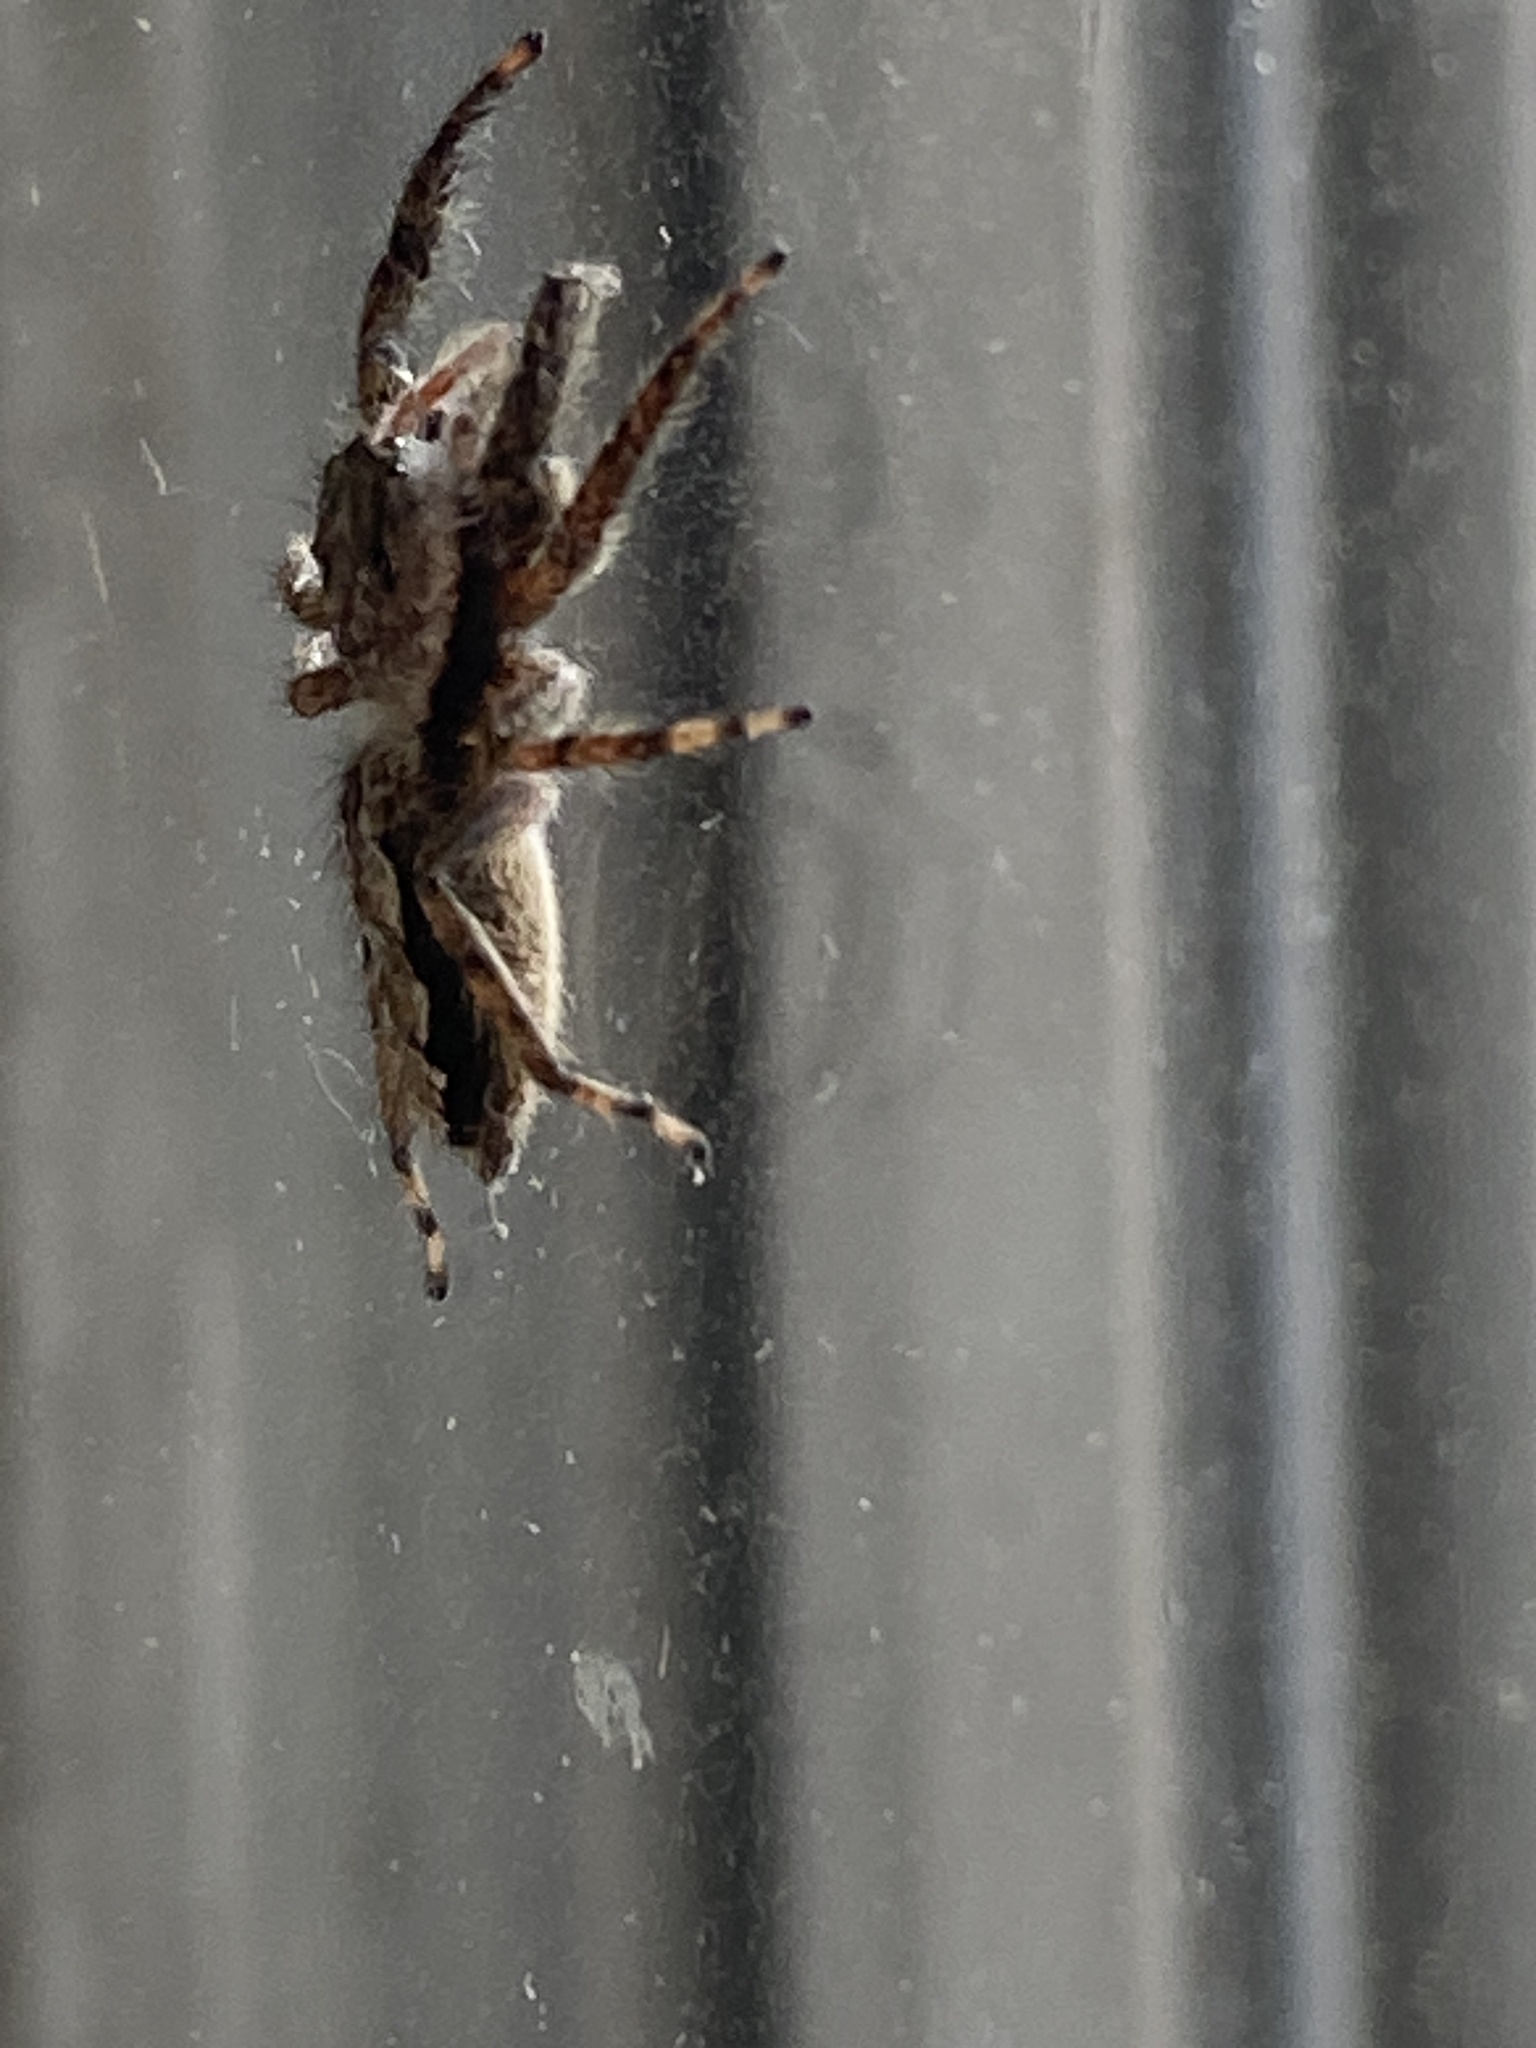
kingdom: Animalia
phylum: Arthropoda
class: Arachnida
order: Araneae
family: Salticidae
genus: Platycryptus
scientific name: Platycryptus undatus
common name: Tan jumping spider
